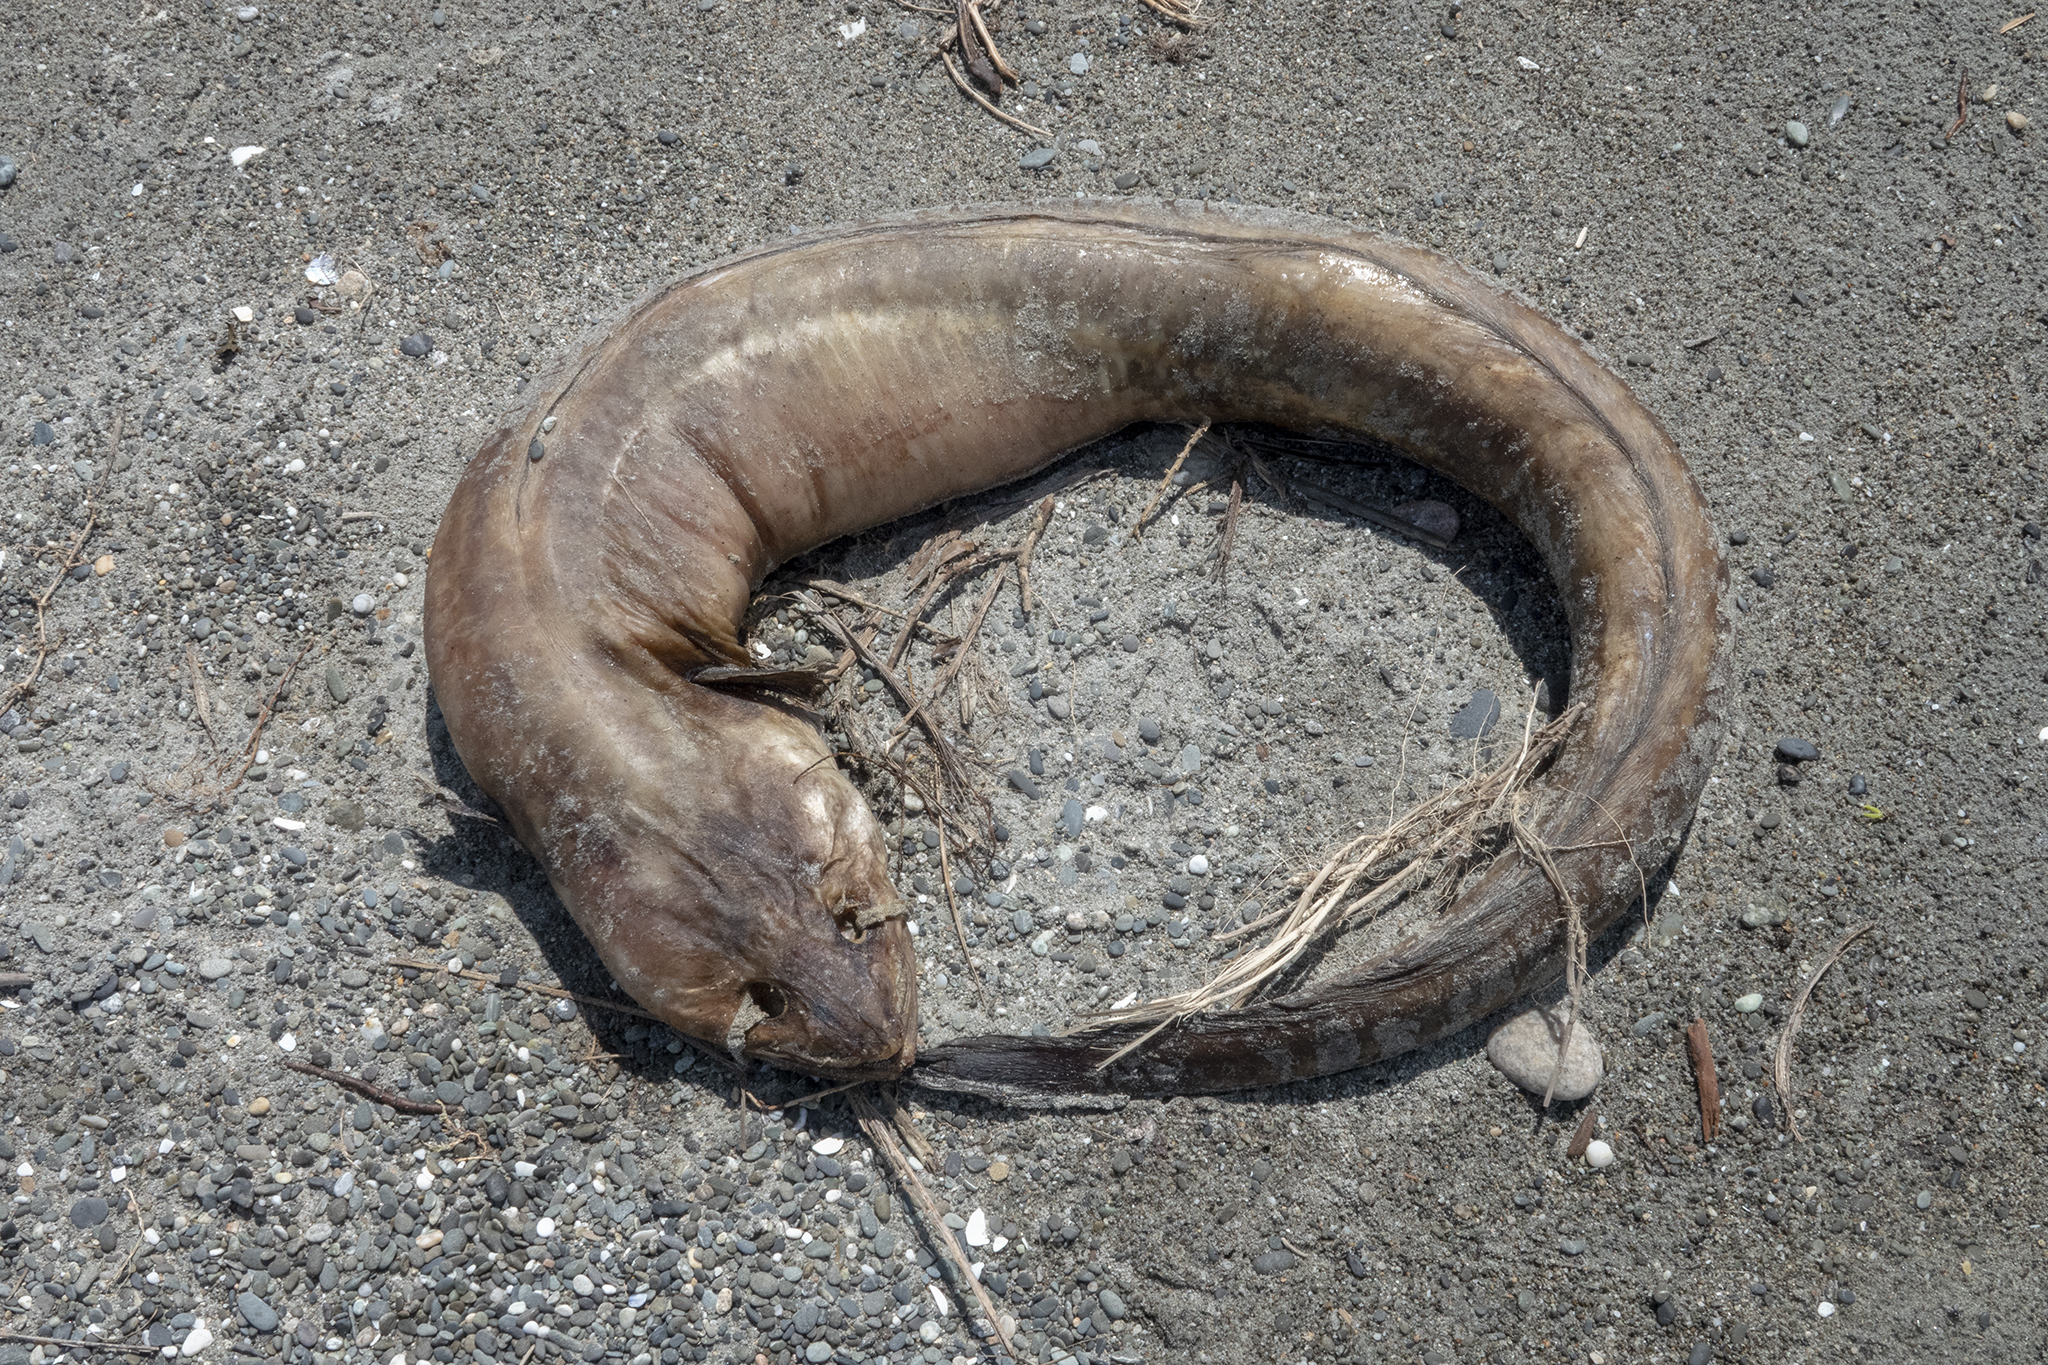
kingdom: Animalia
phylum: Chordata
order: Ophidiiformes
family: Ophidiidae
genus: Genypterus
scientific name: Genypterus blacodes
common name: Kingclip
